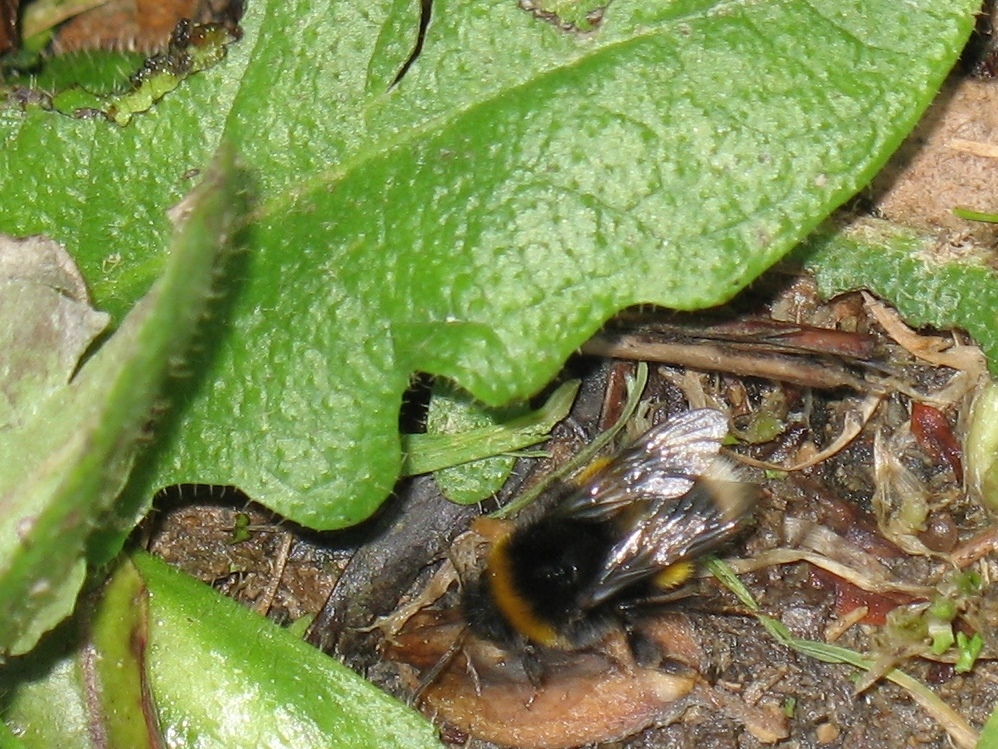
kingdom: Animalia
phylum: Arthropoda
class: Insecta
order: Hymenoptera
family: Apidae
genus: Bombus
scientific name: Bombus terrestris
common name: Buff-tailed bumblebee
